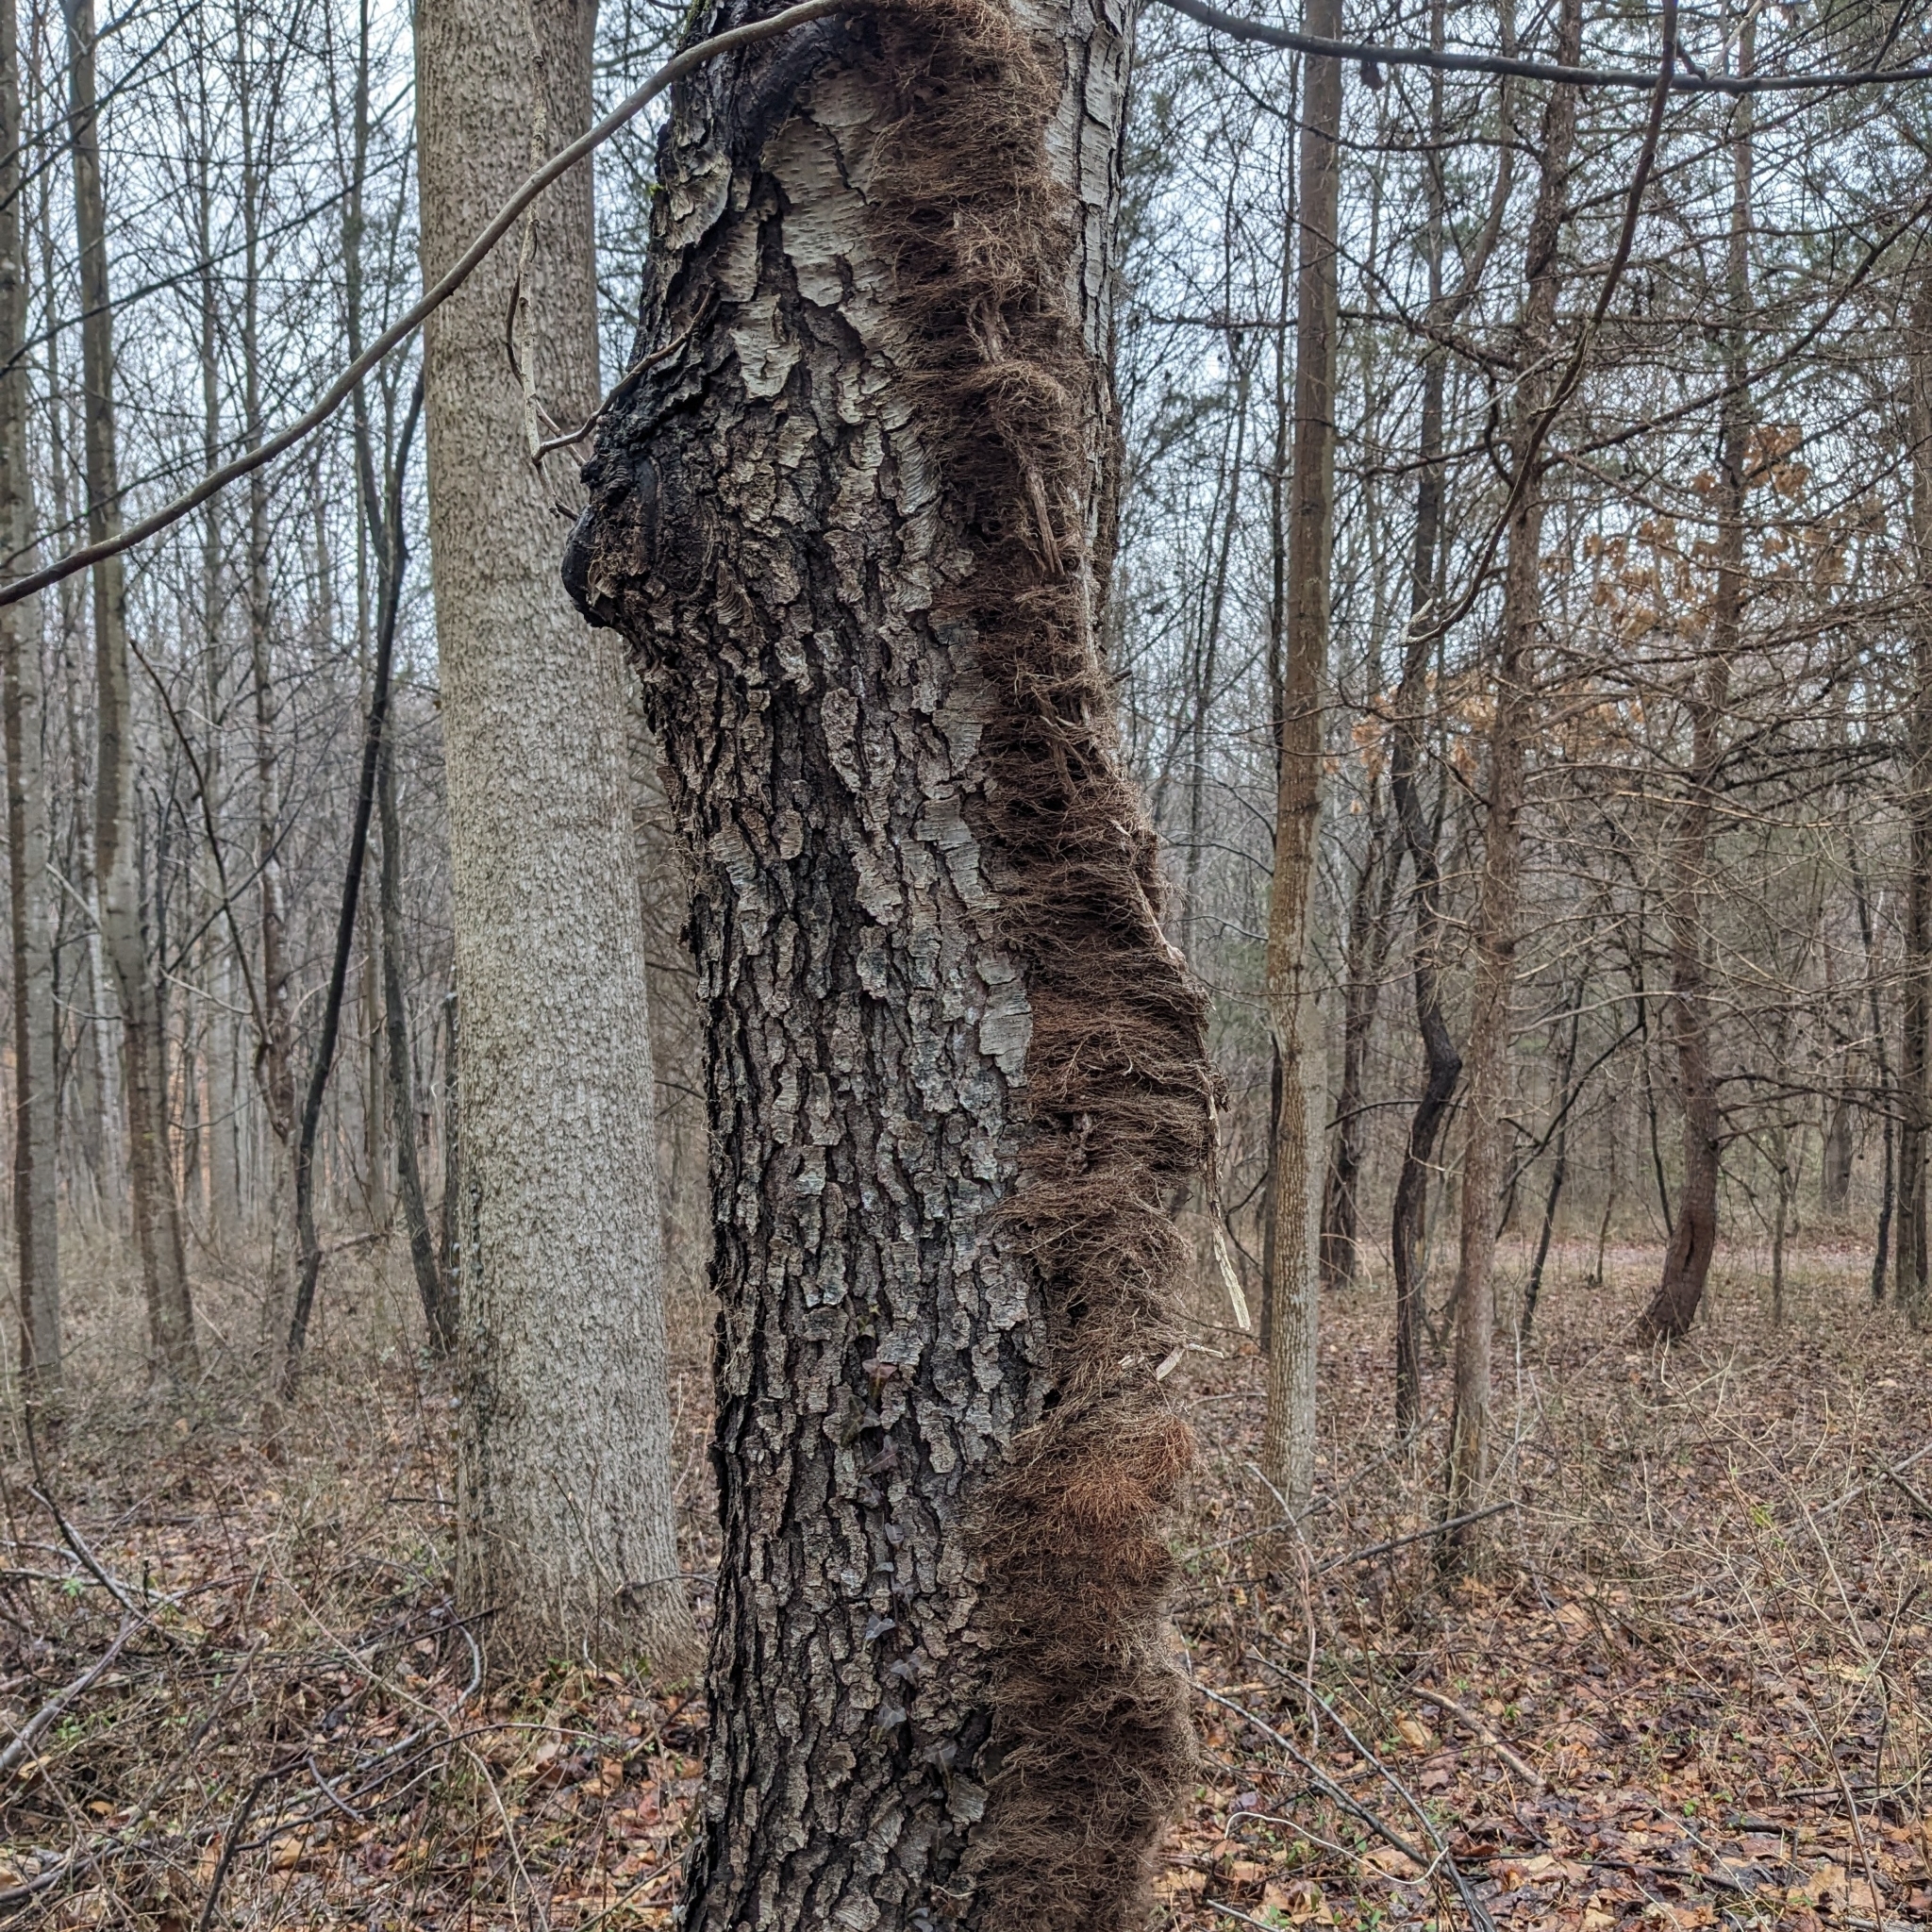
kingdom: Plantae
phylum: Tracheophyta
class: Magnoliopsida
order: Sapindales
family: Anacardiaceae
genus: Toxicodendron
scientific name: Toxicodendron radicans
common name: Poison ivy
